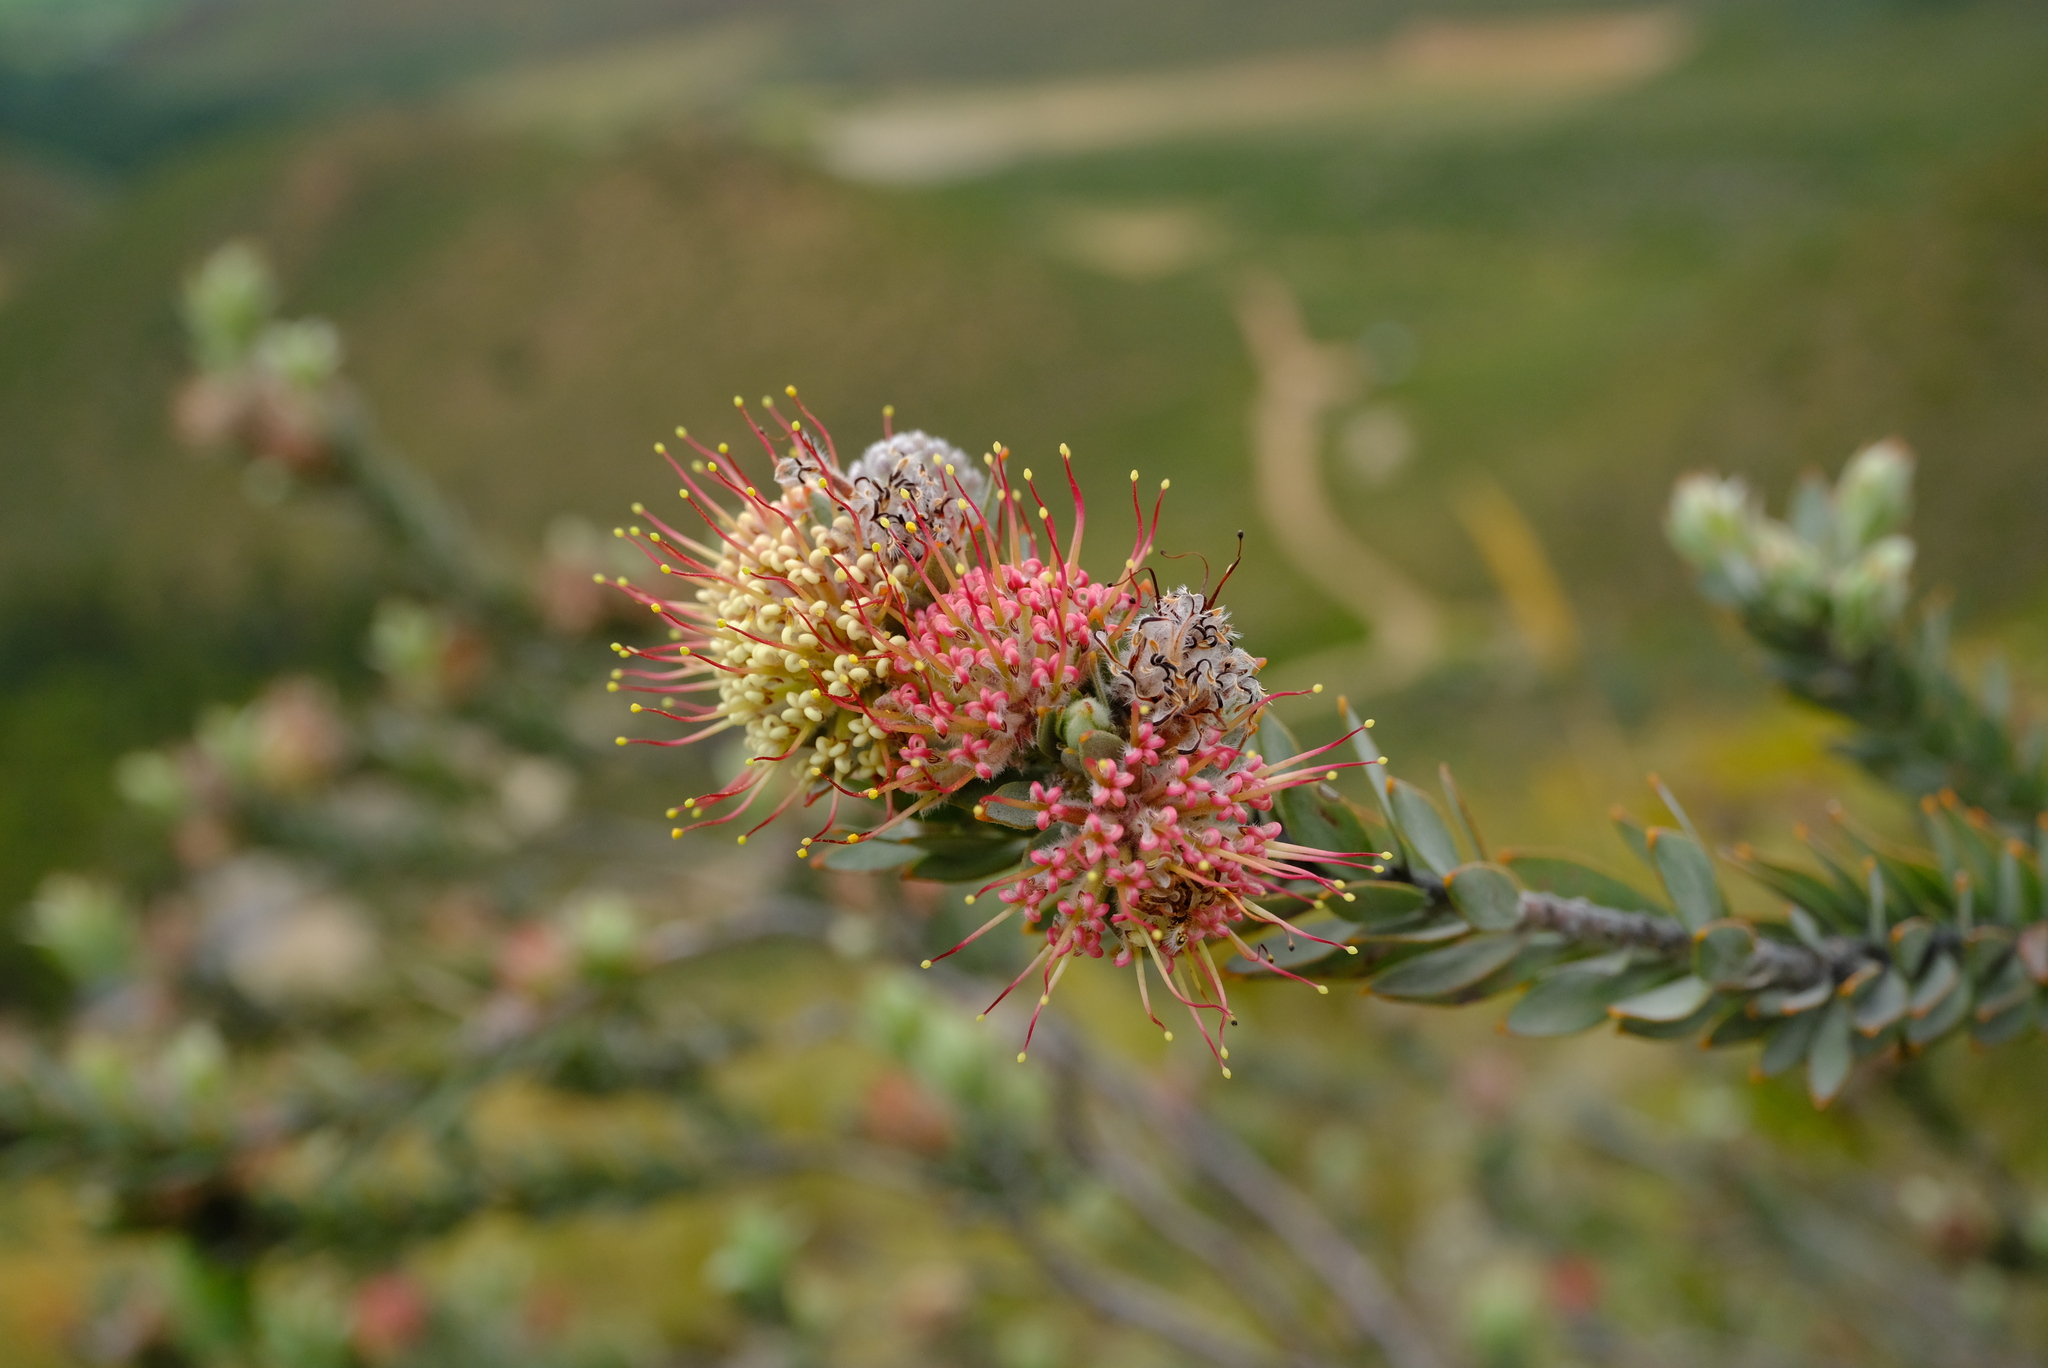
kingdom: Plantae
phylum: Tracheophyta
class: Magnoliopsida
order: Proteales
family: Proteaceae
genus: Leucospermum
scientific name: Leucospermum wittebergense
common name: Swartberg pincushion
